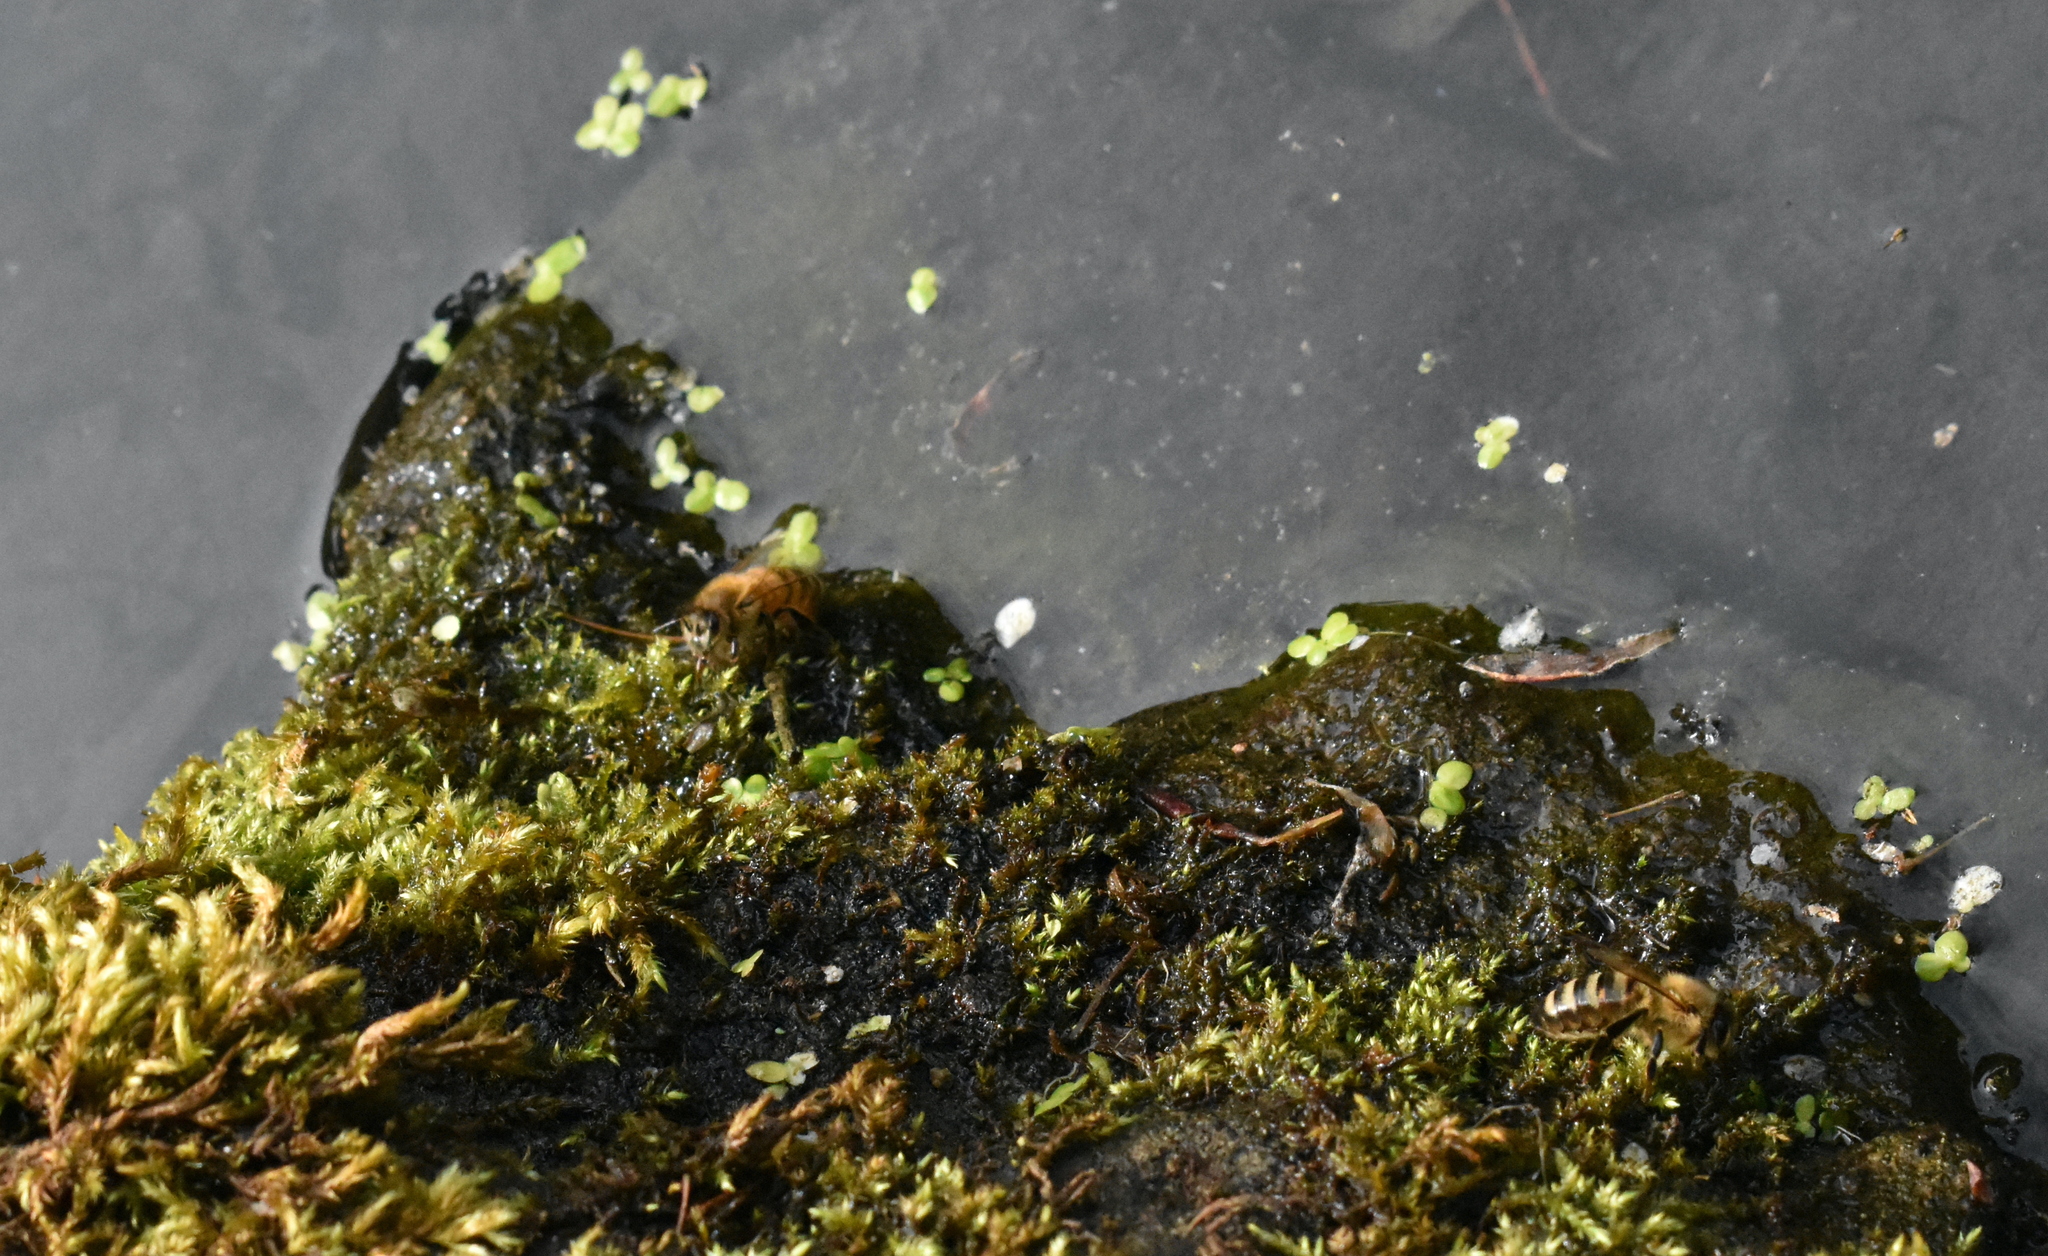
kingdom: Animalia
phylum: Arthropoda
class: Insecta
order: Hymenoptera
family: Apidae
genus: Apis
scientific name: Apis mellifera
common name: Honey bee
